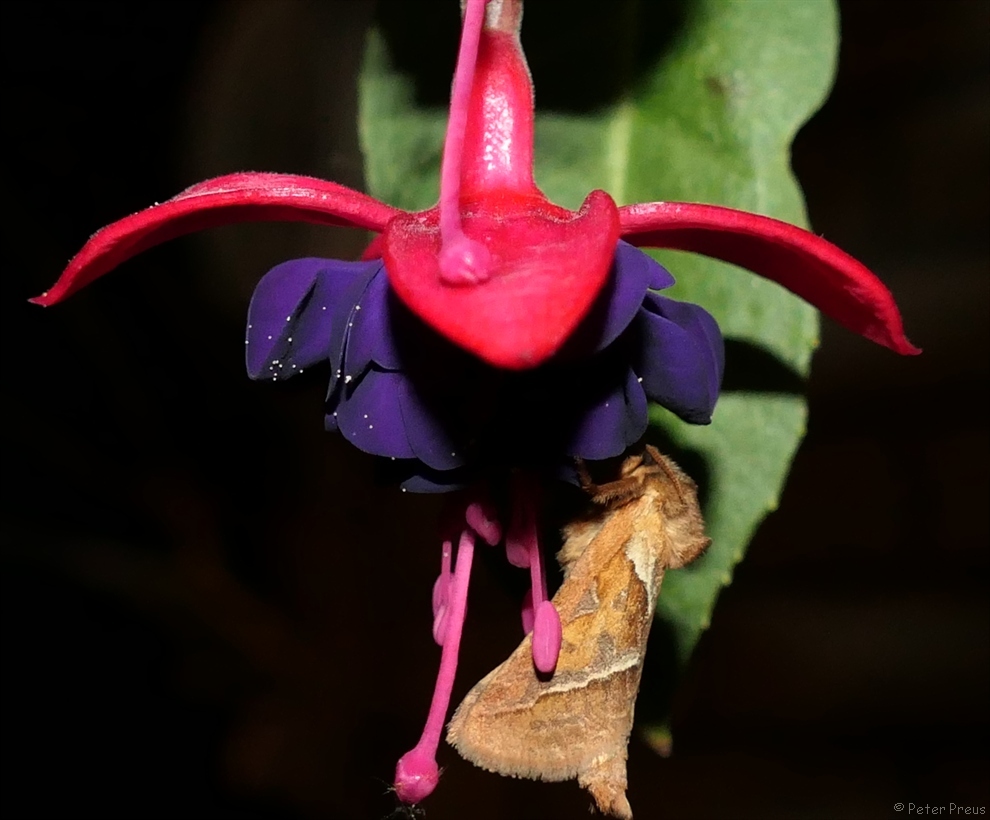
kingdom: Animalia
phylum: Arthropoda
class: Insecta
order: Lepidoptera
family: Hepialidae
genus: Triodia
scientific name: Triodia sylvina
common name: Orange swift
